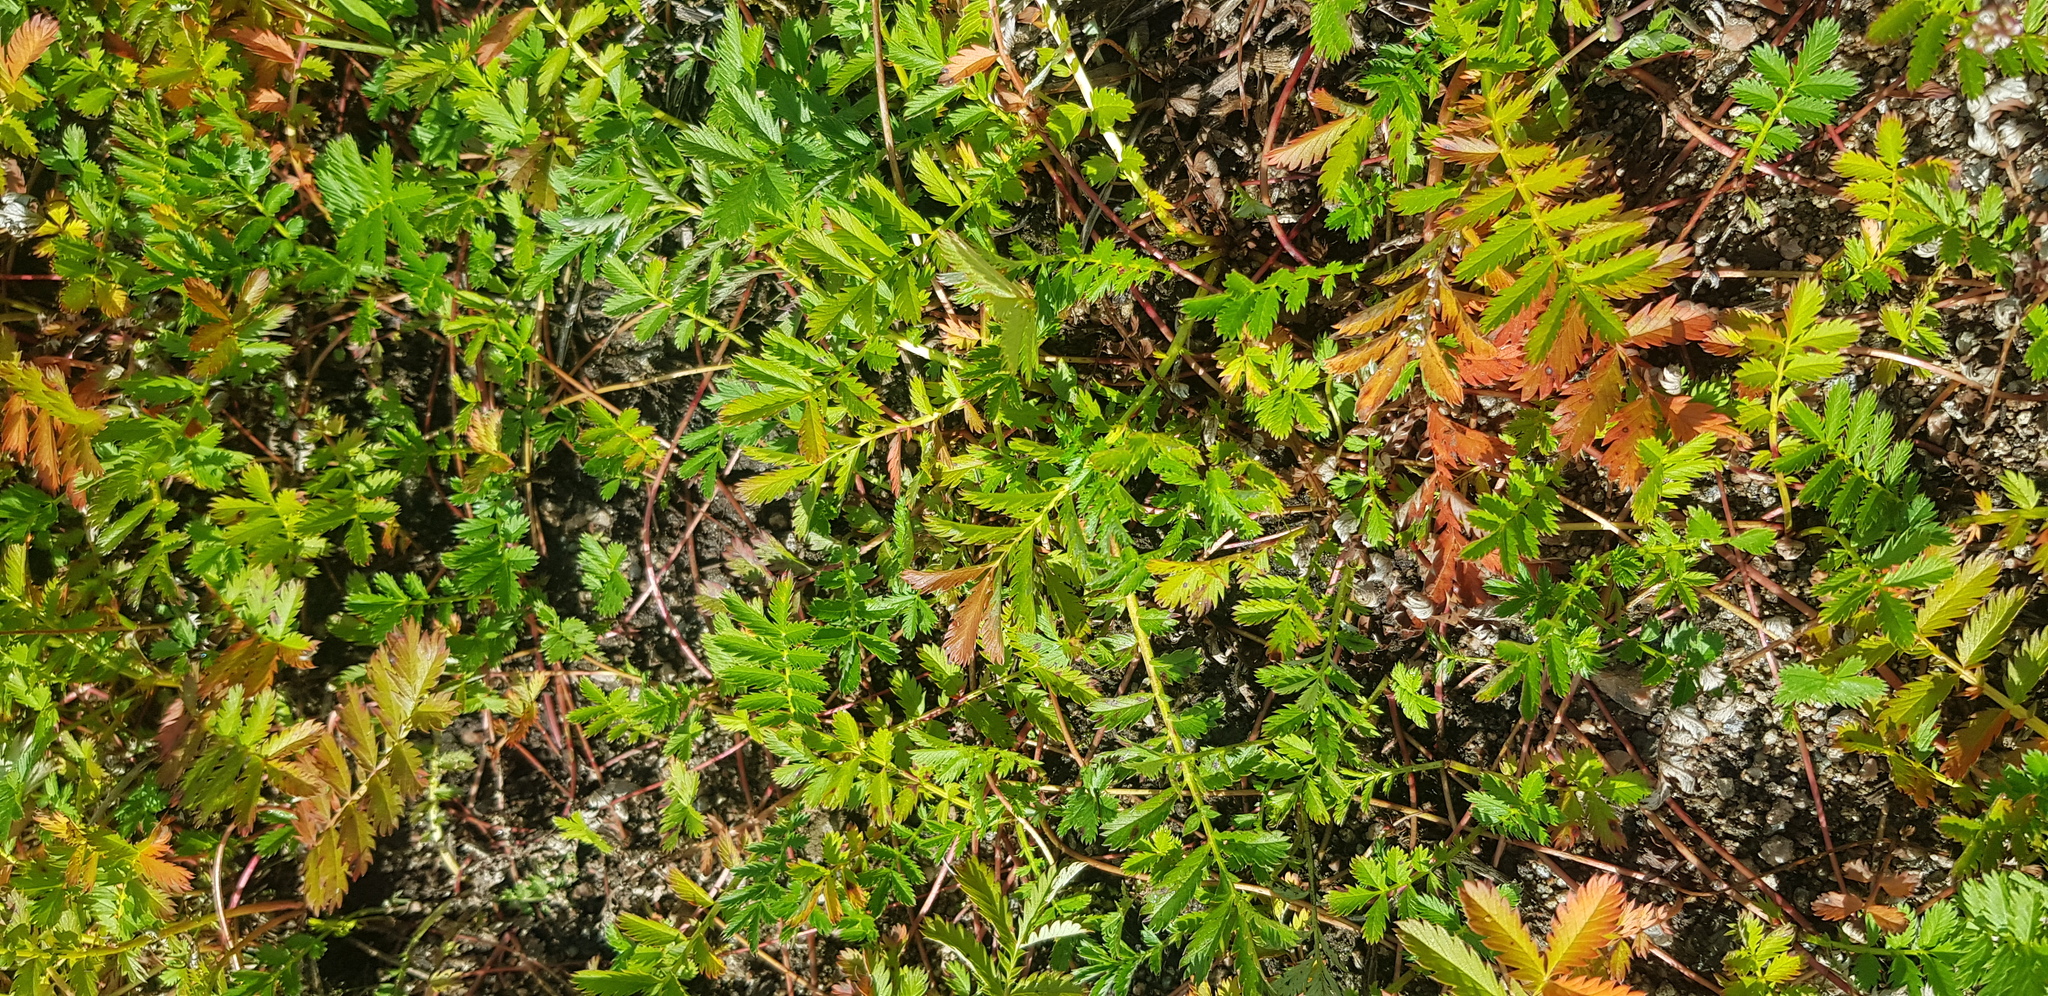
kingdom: Plantae
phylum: Tracheophyta
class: Magnoliopsida
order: Rosales
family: Rosaceae
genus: Argentina
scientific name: Argentina anserina
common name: Common silverweed
